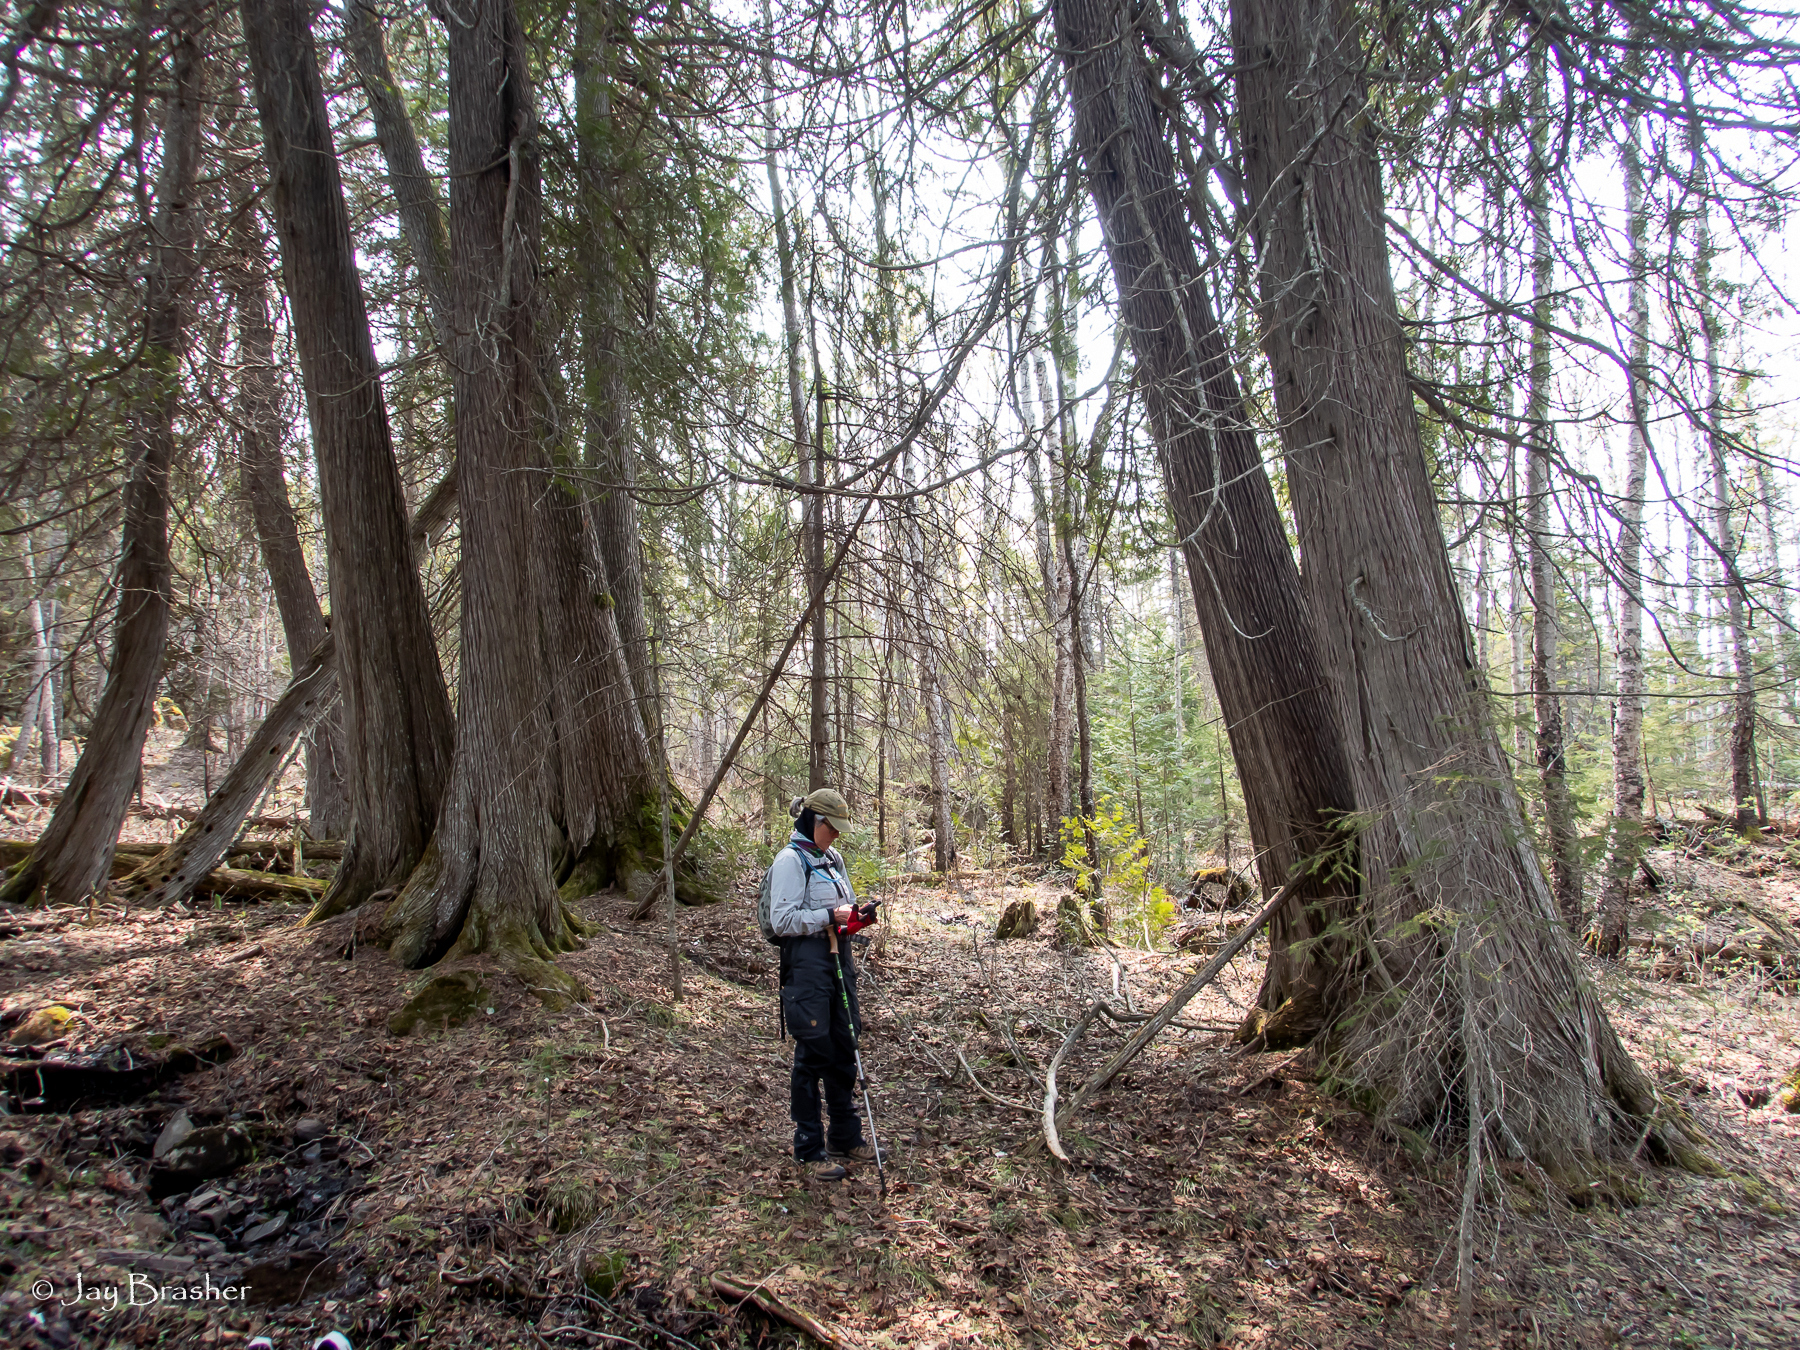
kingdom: Plantae
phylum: Tracheophyta
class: Pinopsida
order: Pinales
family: Cupressaceae
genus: Thuja
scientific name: Thuja occidentalis
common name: Northern white-cedar
